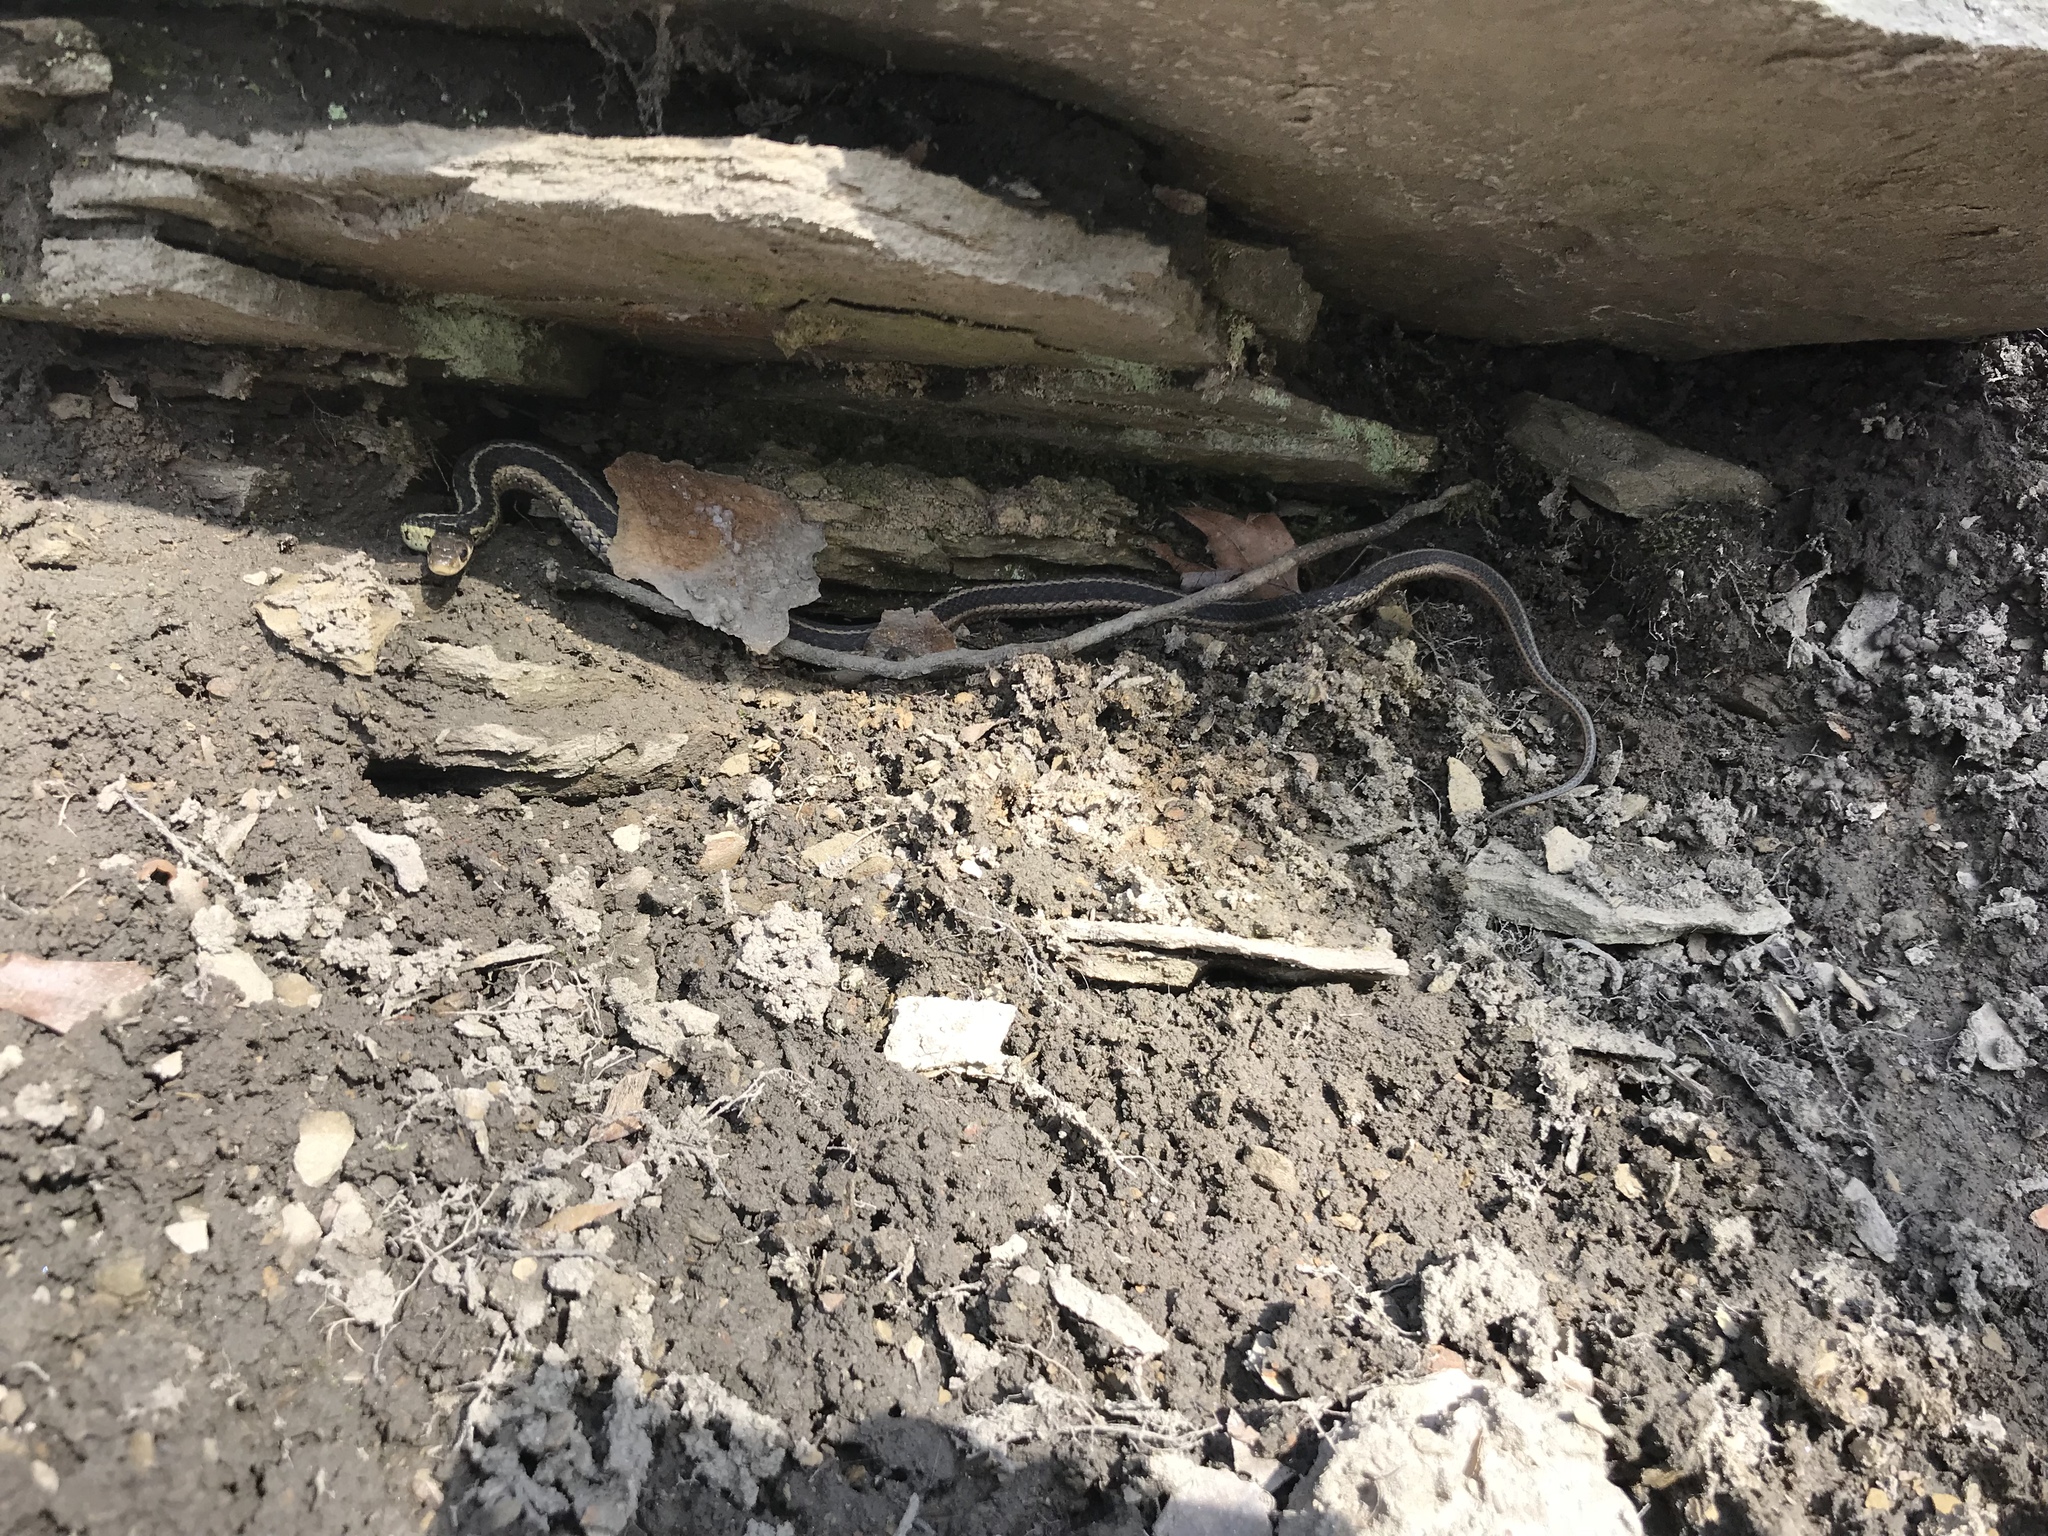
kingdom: Animalia
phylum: Chordata
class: Squamata
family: Colubridae
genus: Thamnophis
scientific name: Thamnophis sirtalis
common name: Common garter snake
